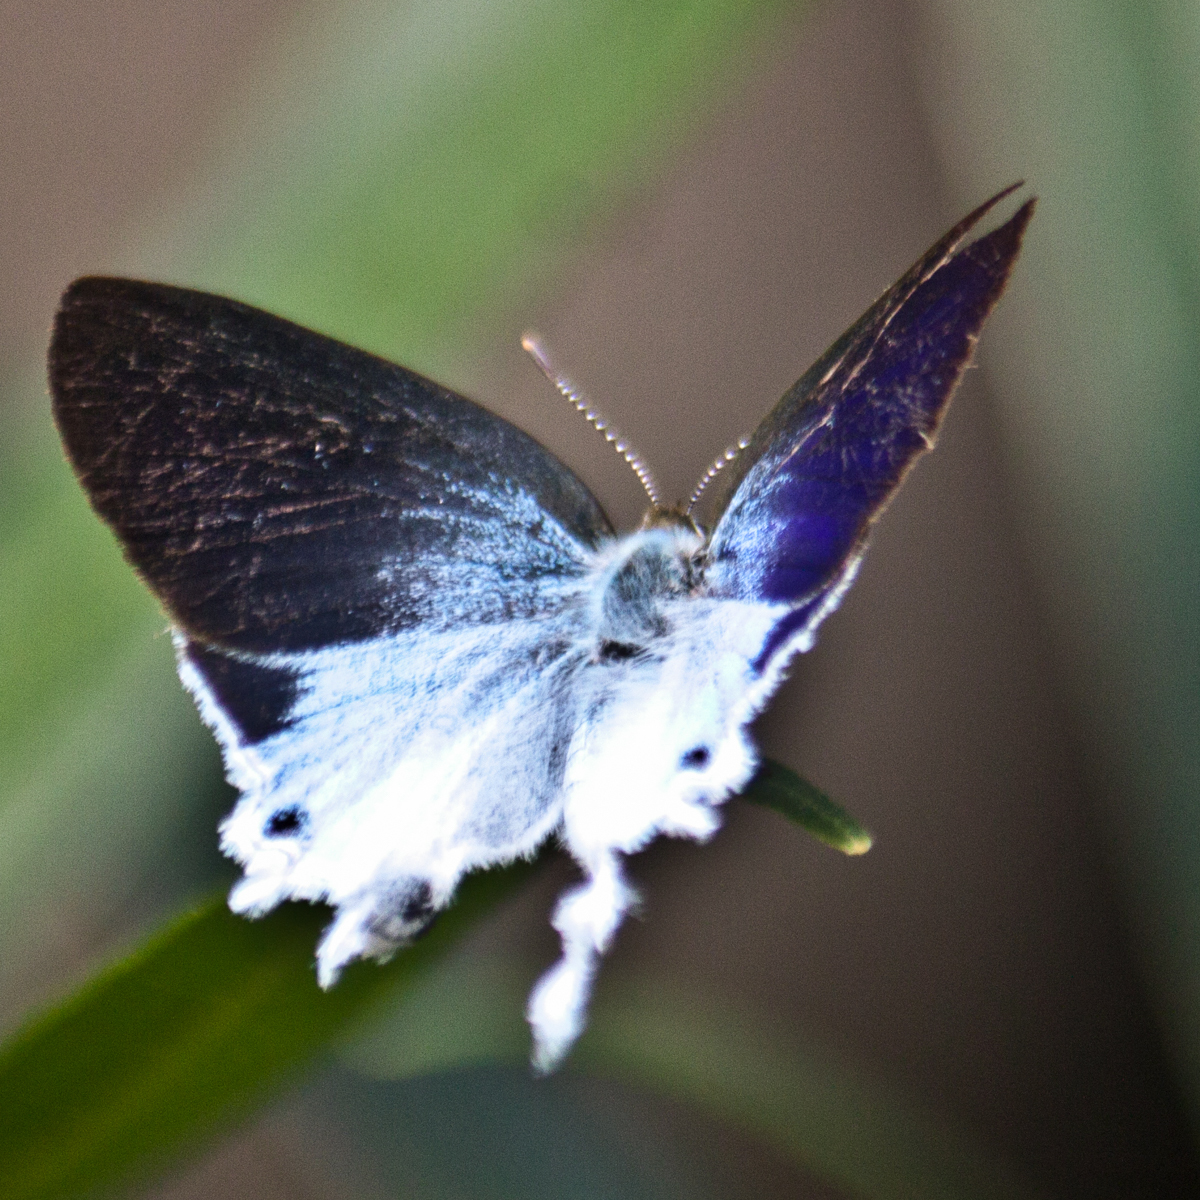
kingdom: Animalia
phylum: Arthropoda
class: Insecta
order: Lepidoptera
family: Lycaenidae
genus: Zeltus
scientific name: Zeltus amasa
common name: Fluffy tit
